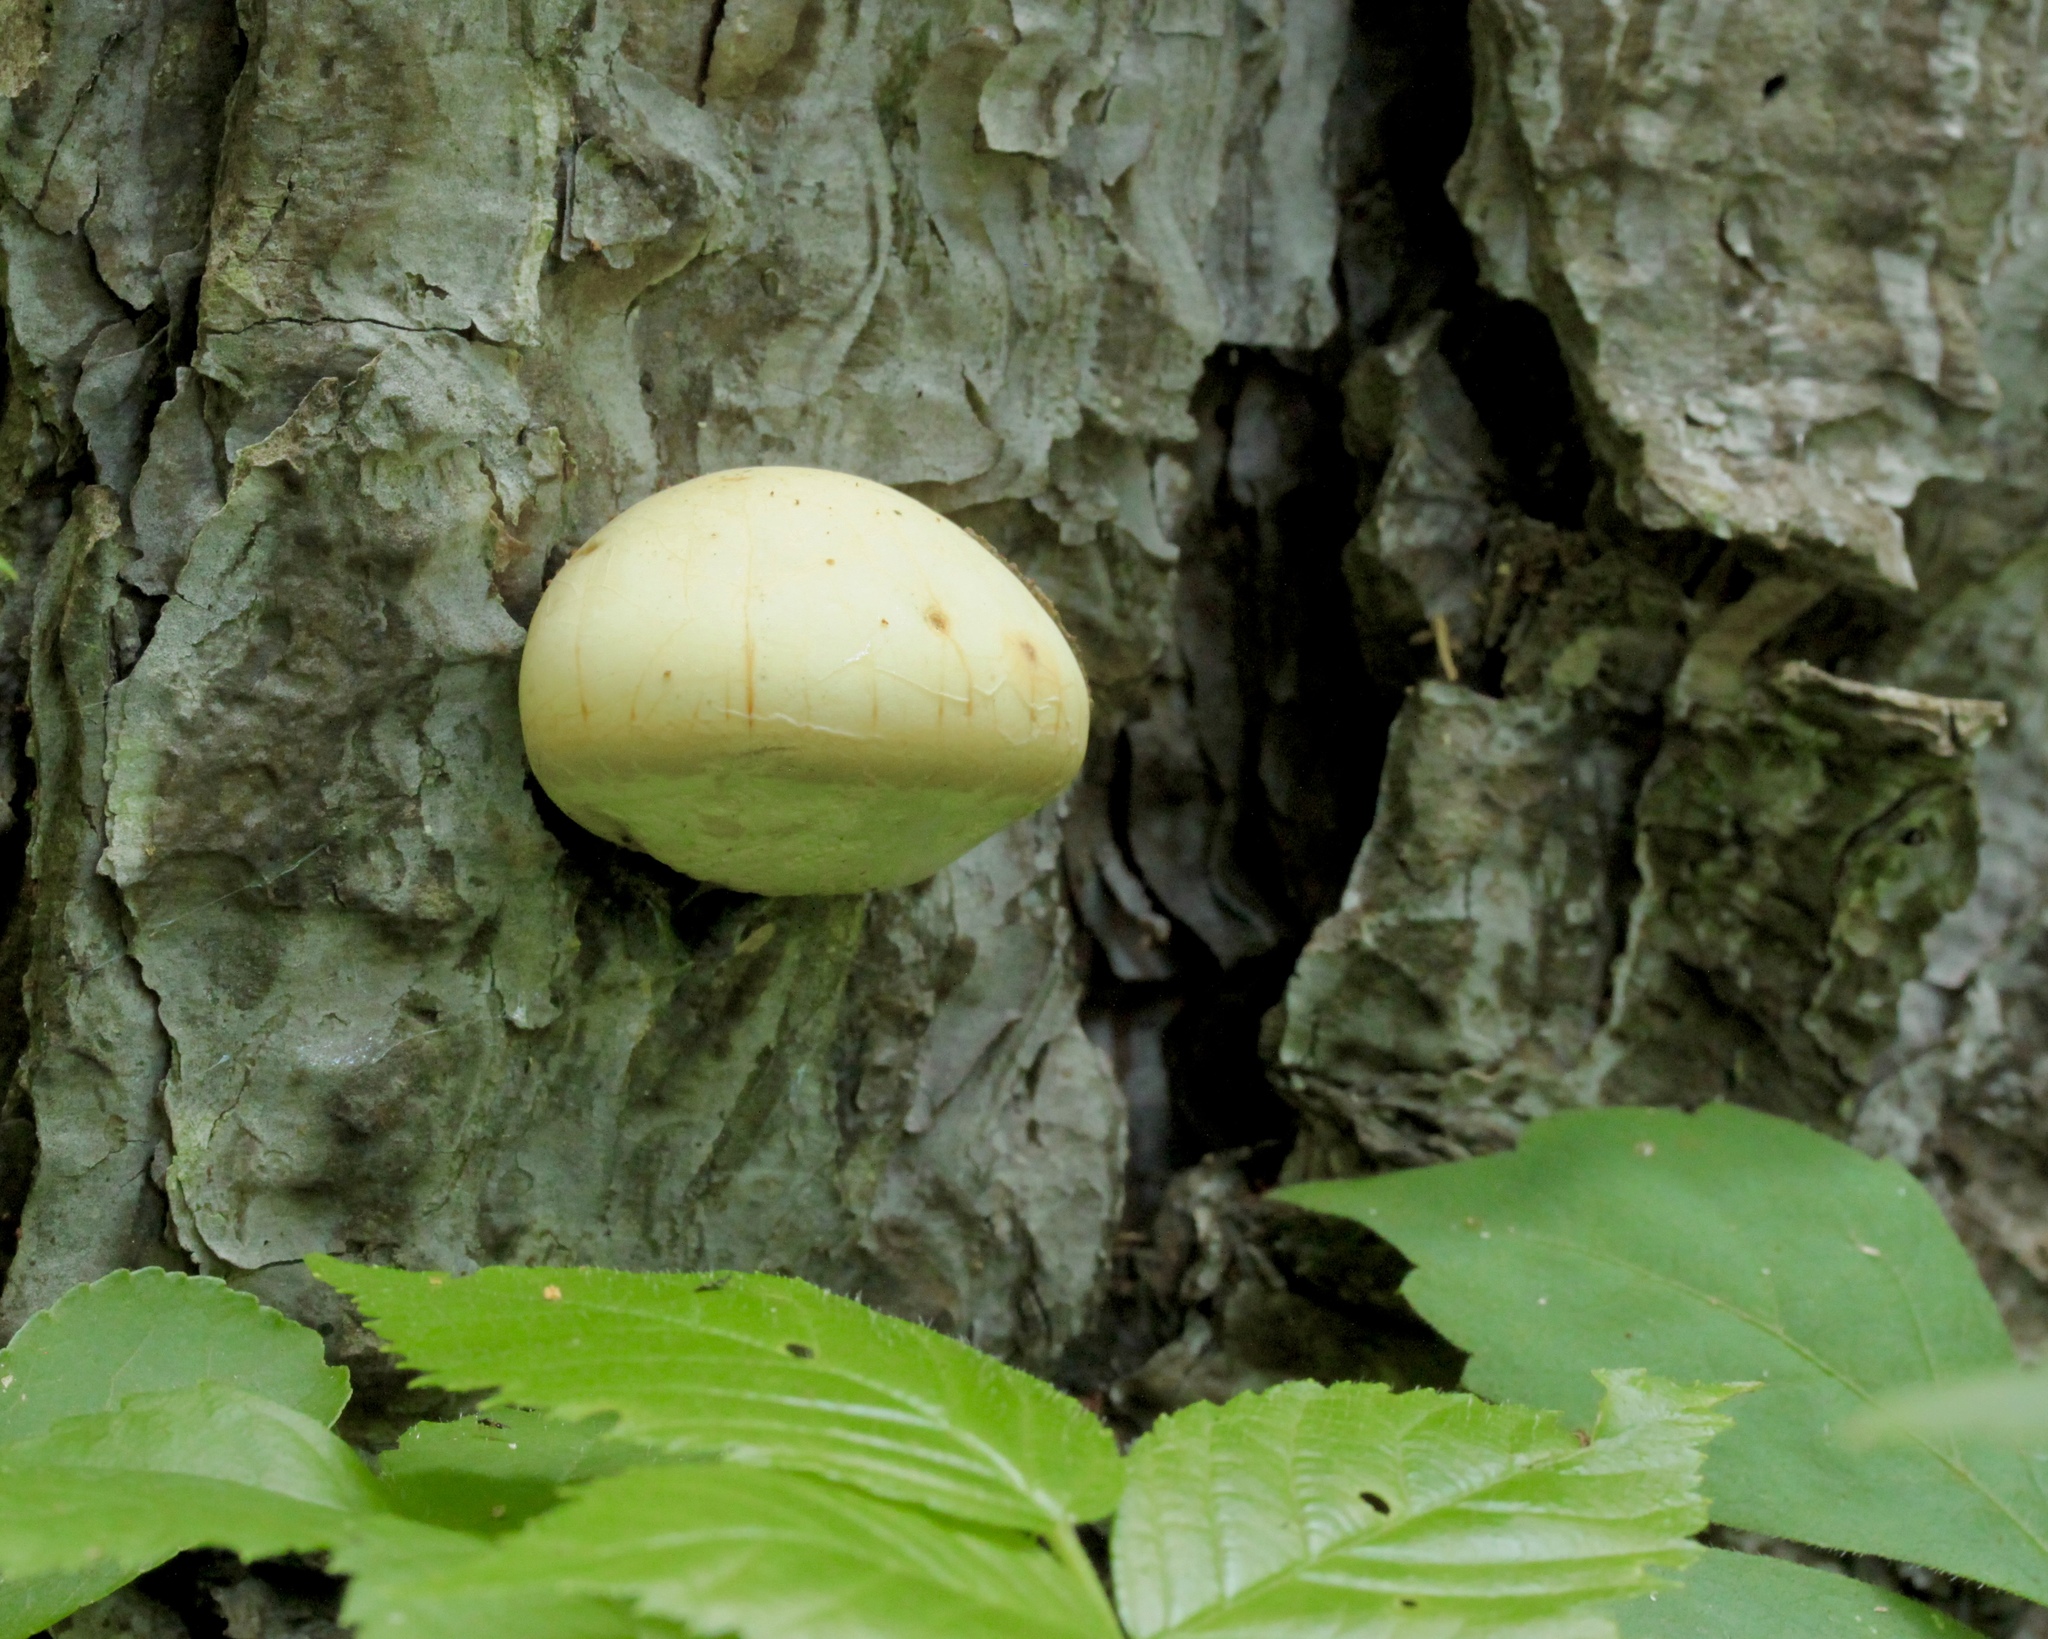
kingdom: Fungi
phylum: Basidiomycota
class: Agaricomycetes
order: Polyporales
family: Polyporaceae
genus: Cryptoporus
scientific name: Cryptoporus volvatus
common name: Veiled polypore
